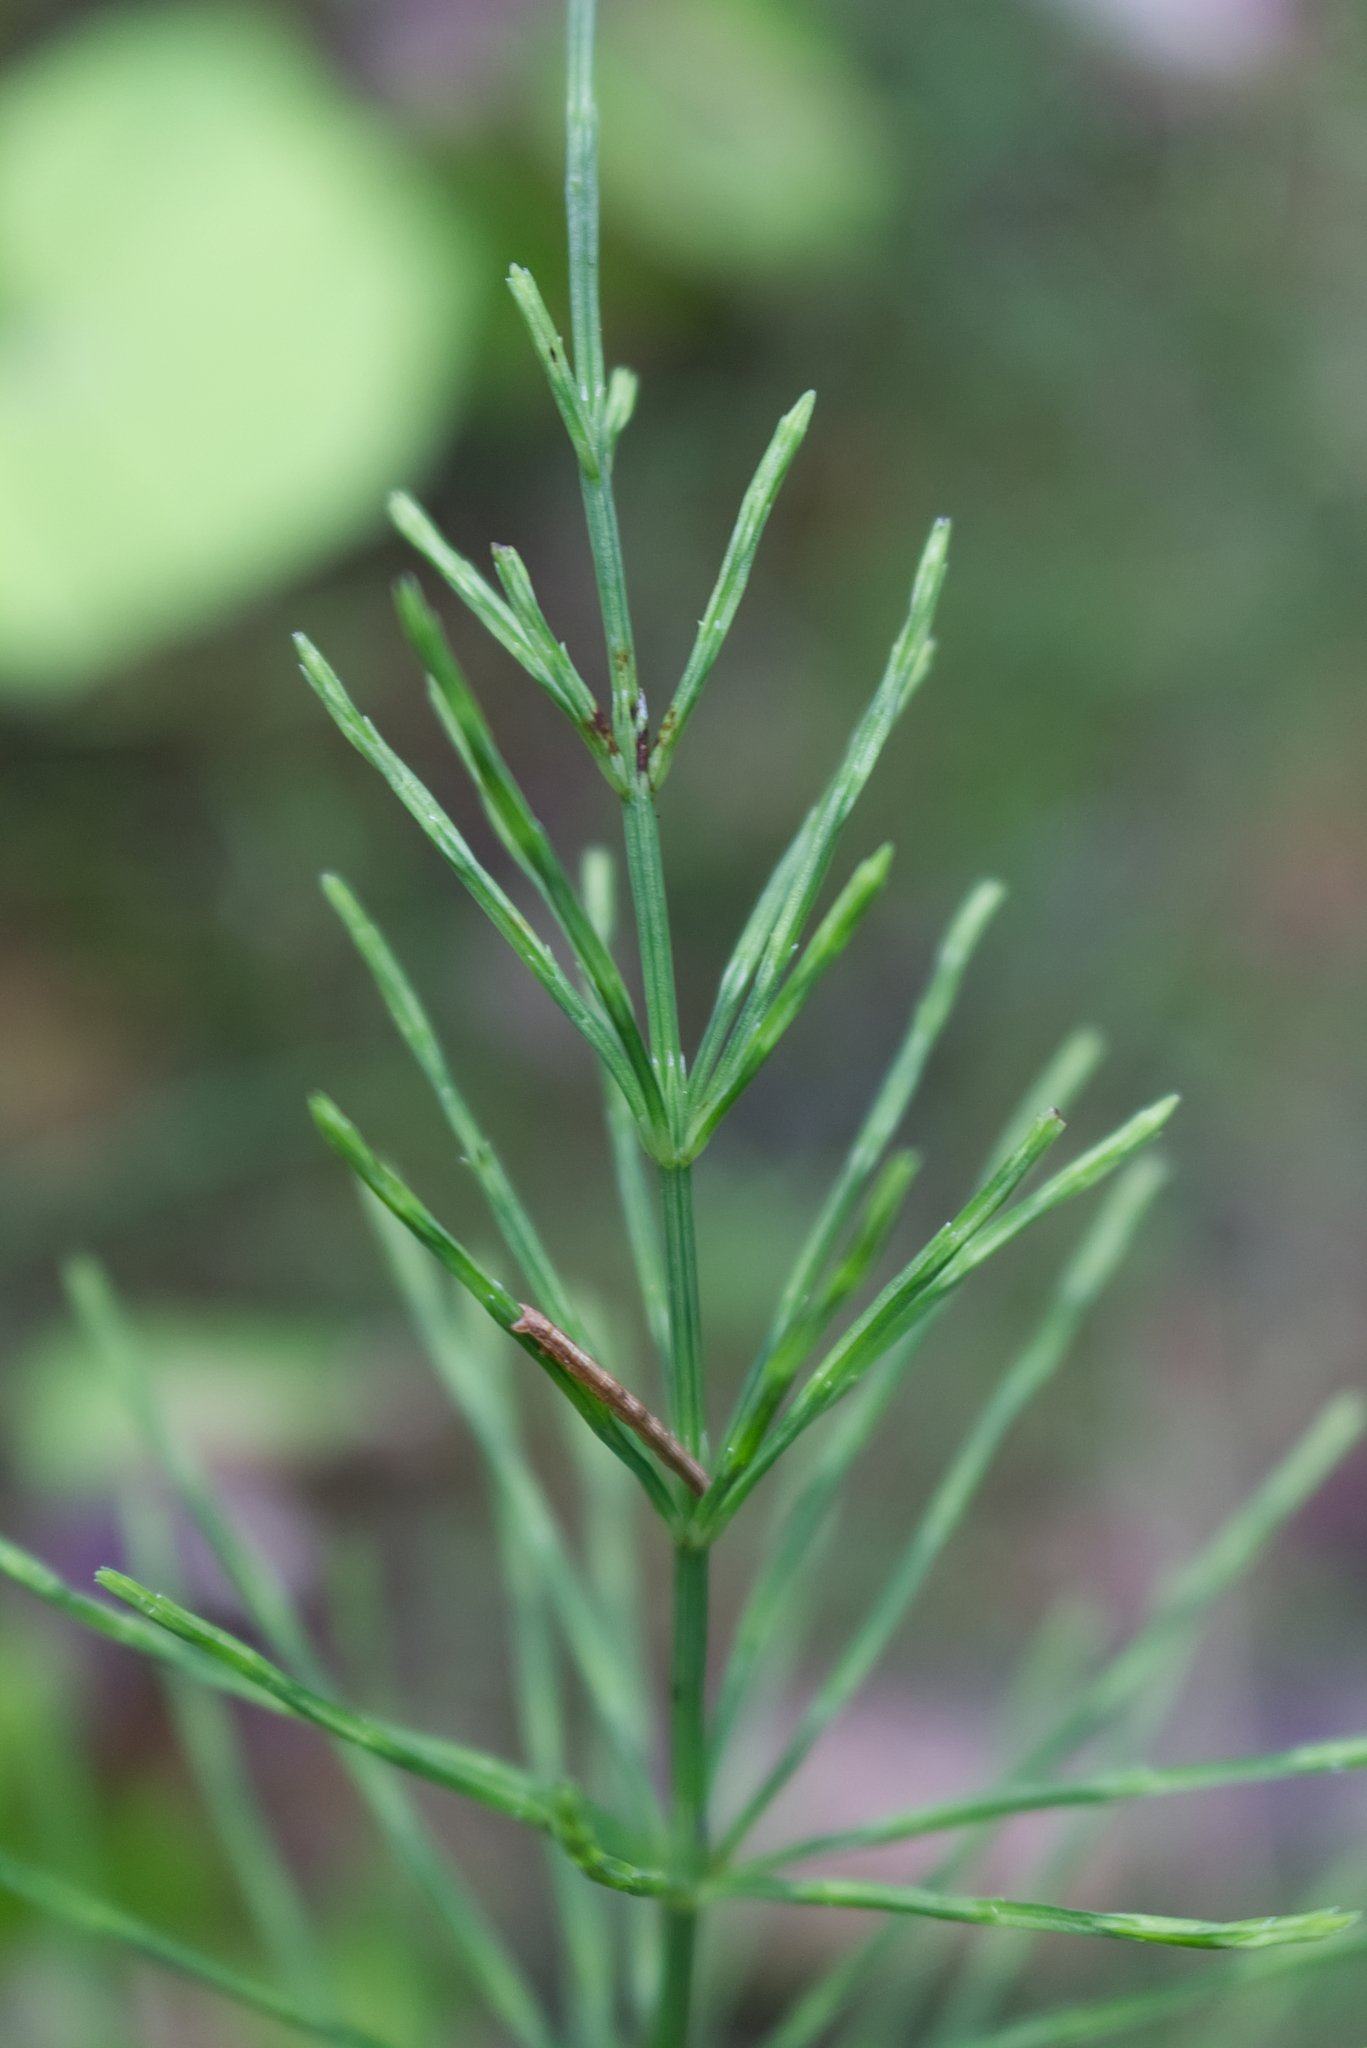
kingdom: Plantae
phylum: Tracheophyta
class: Polypodiopsida
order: Equisetales
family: Equisetaceae
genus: Equisetum
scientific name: Equisetum arvense
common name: Field horsetail
